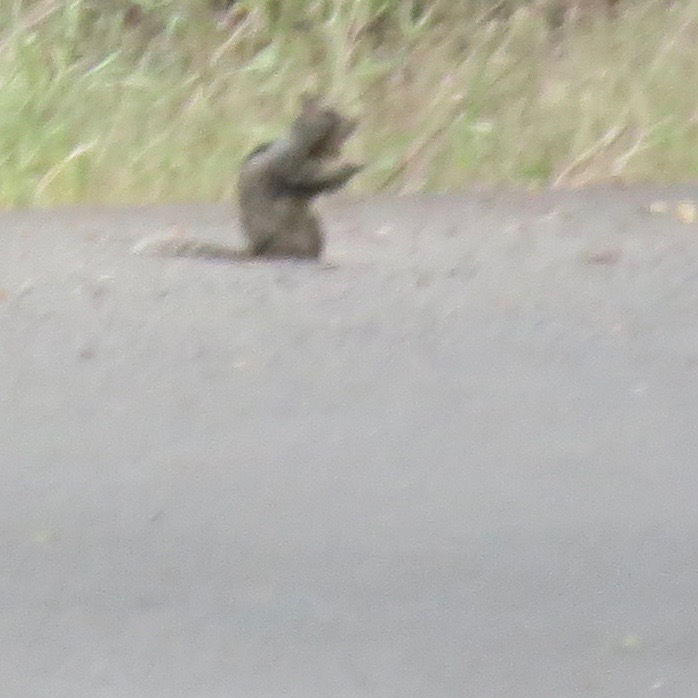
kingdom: Animalia
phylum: Chordata
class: Mammalia
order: Rodentia
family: Sciuridae
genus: Otospermophilus
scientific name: Otospermophilus beecheyi
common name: California ground squirrel
